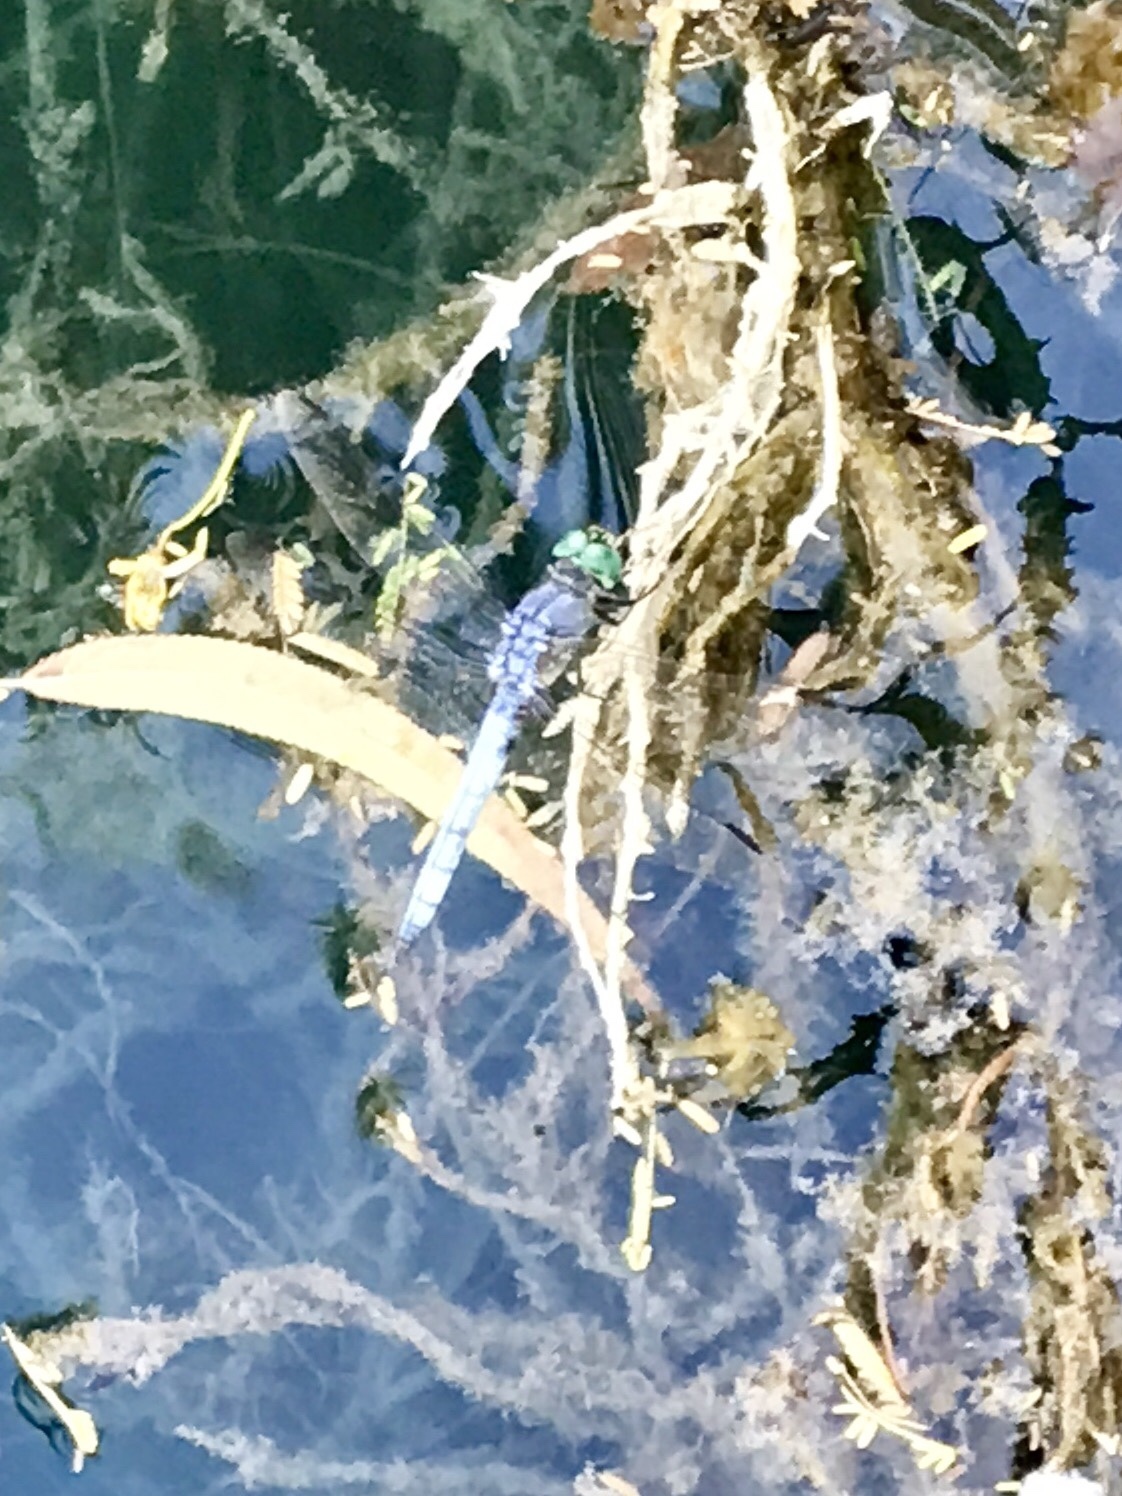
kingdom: Animalia
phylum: Arthropoda
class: Insecta
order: Odonata
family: Libellulidae
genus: Pachydiplax
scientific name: Pachydiplax longipennis
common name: Blue dasher
